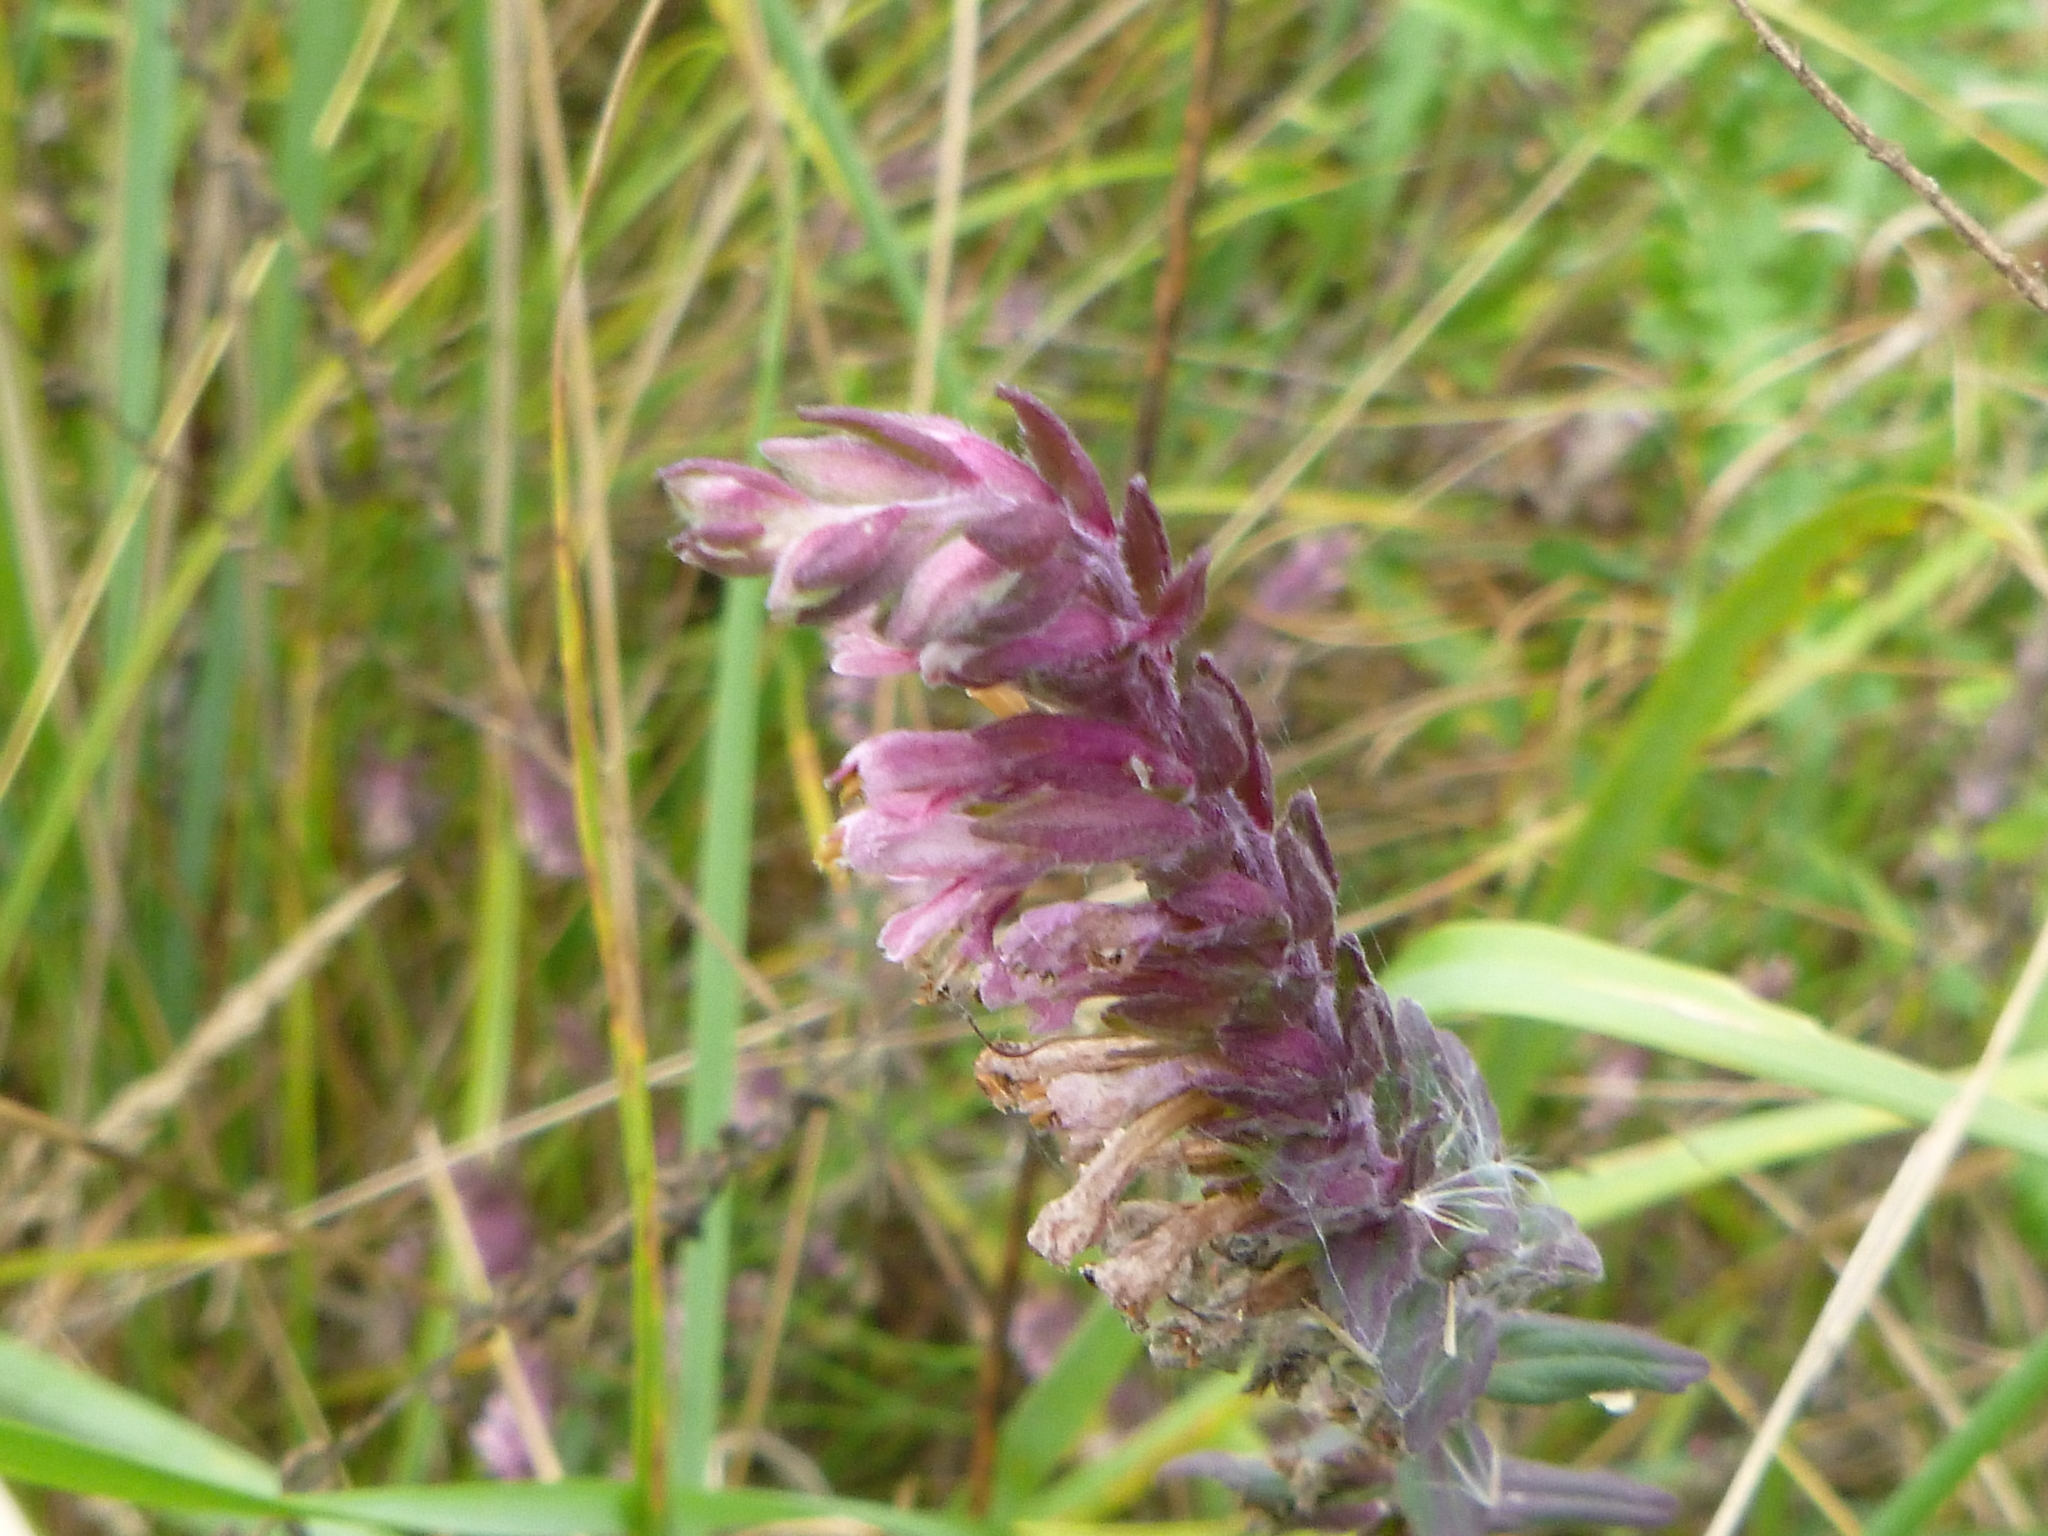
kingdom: Plantae
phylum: Tracheophyta
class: Magnoliopsida
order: Lamiales
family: Orobanchaceae
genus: Odontites
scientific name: Odontites vernus
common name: Red bartsia
